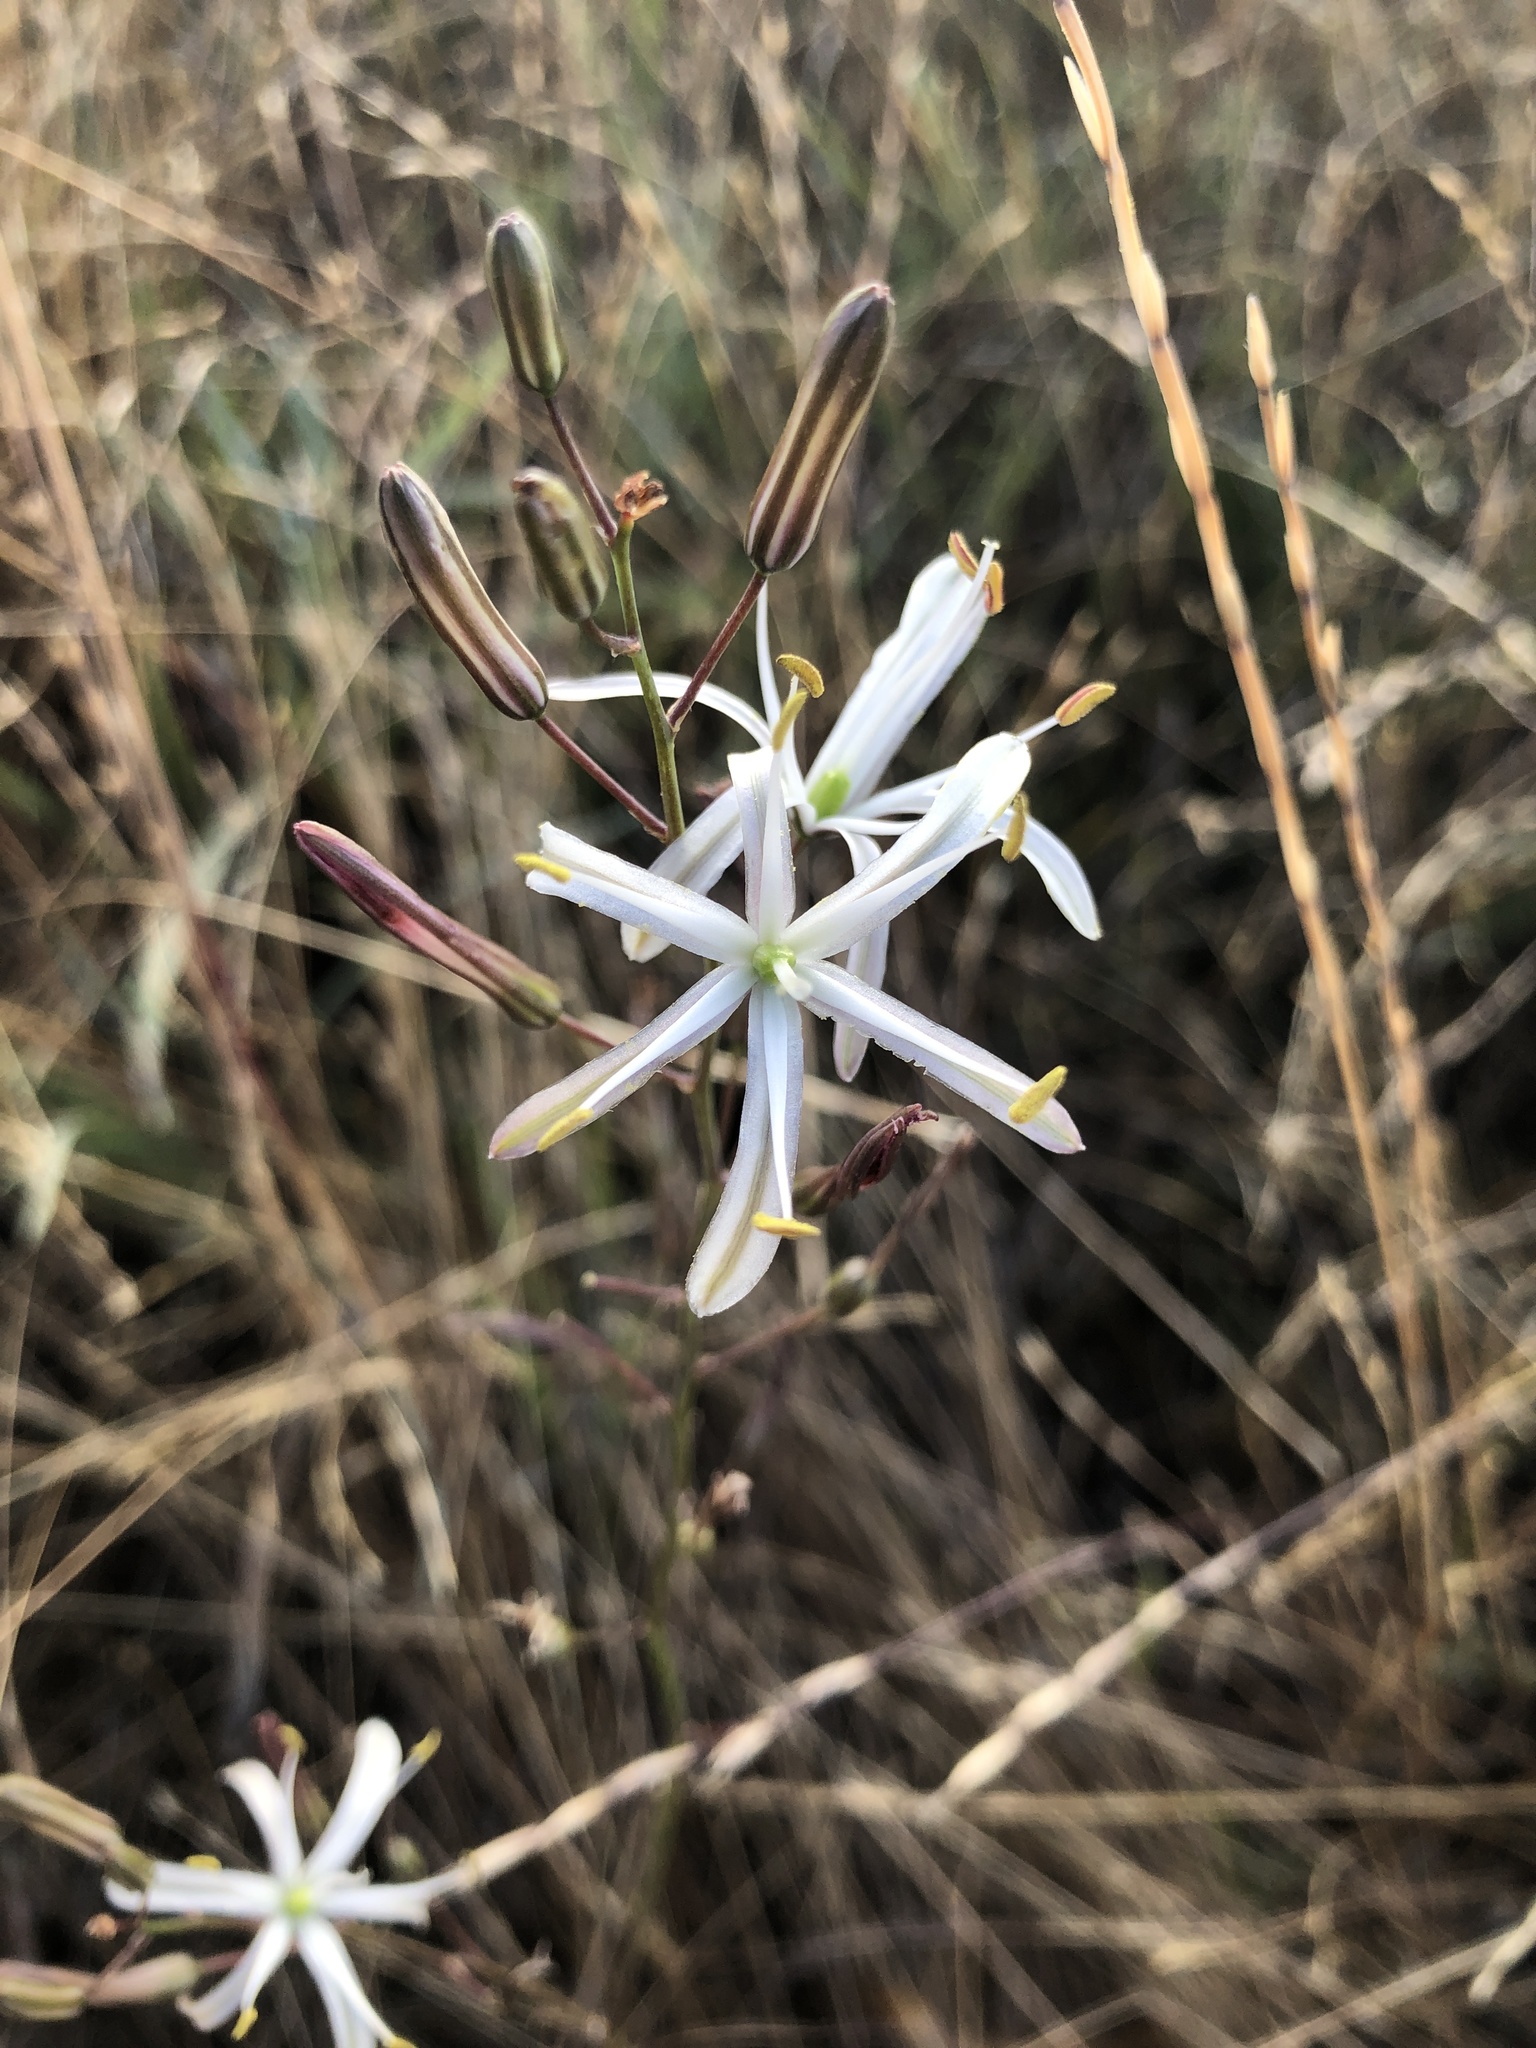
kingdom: Plantae
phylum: Tracheophyta
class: Liliopsida
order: Asparagales
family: Asparagaceae
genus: Chlorogalum
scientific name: Chlorogalum pomeridianum
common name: Amole
